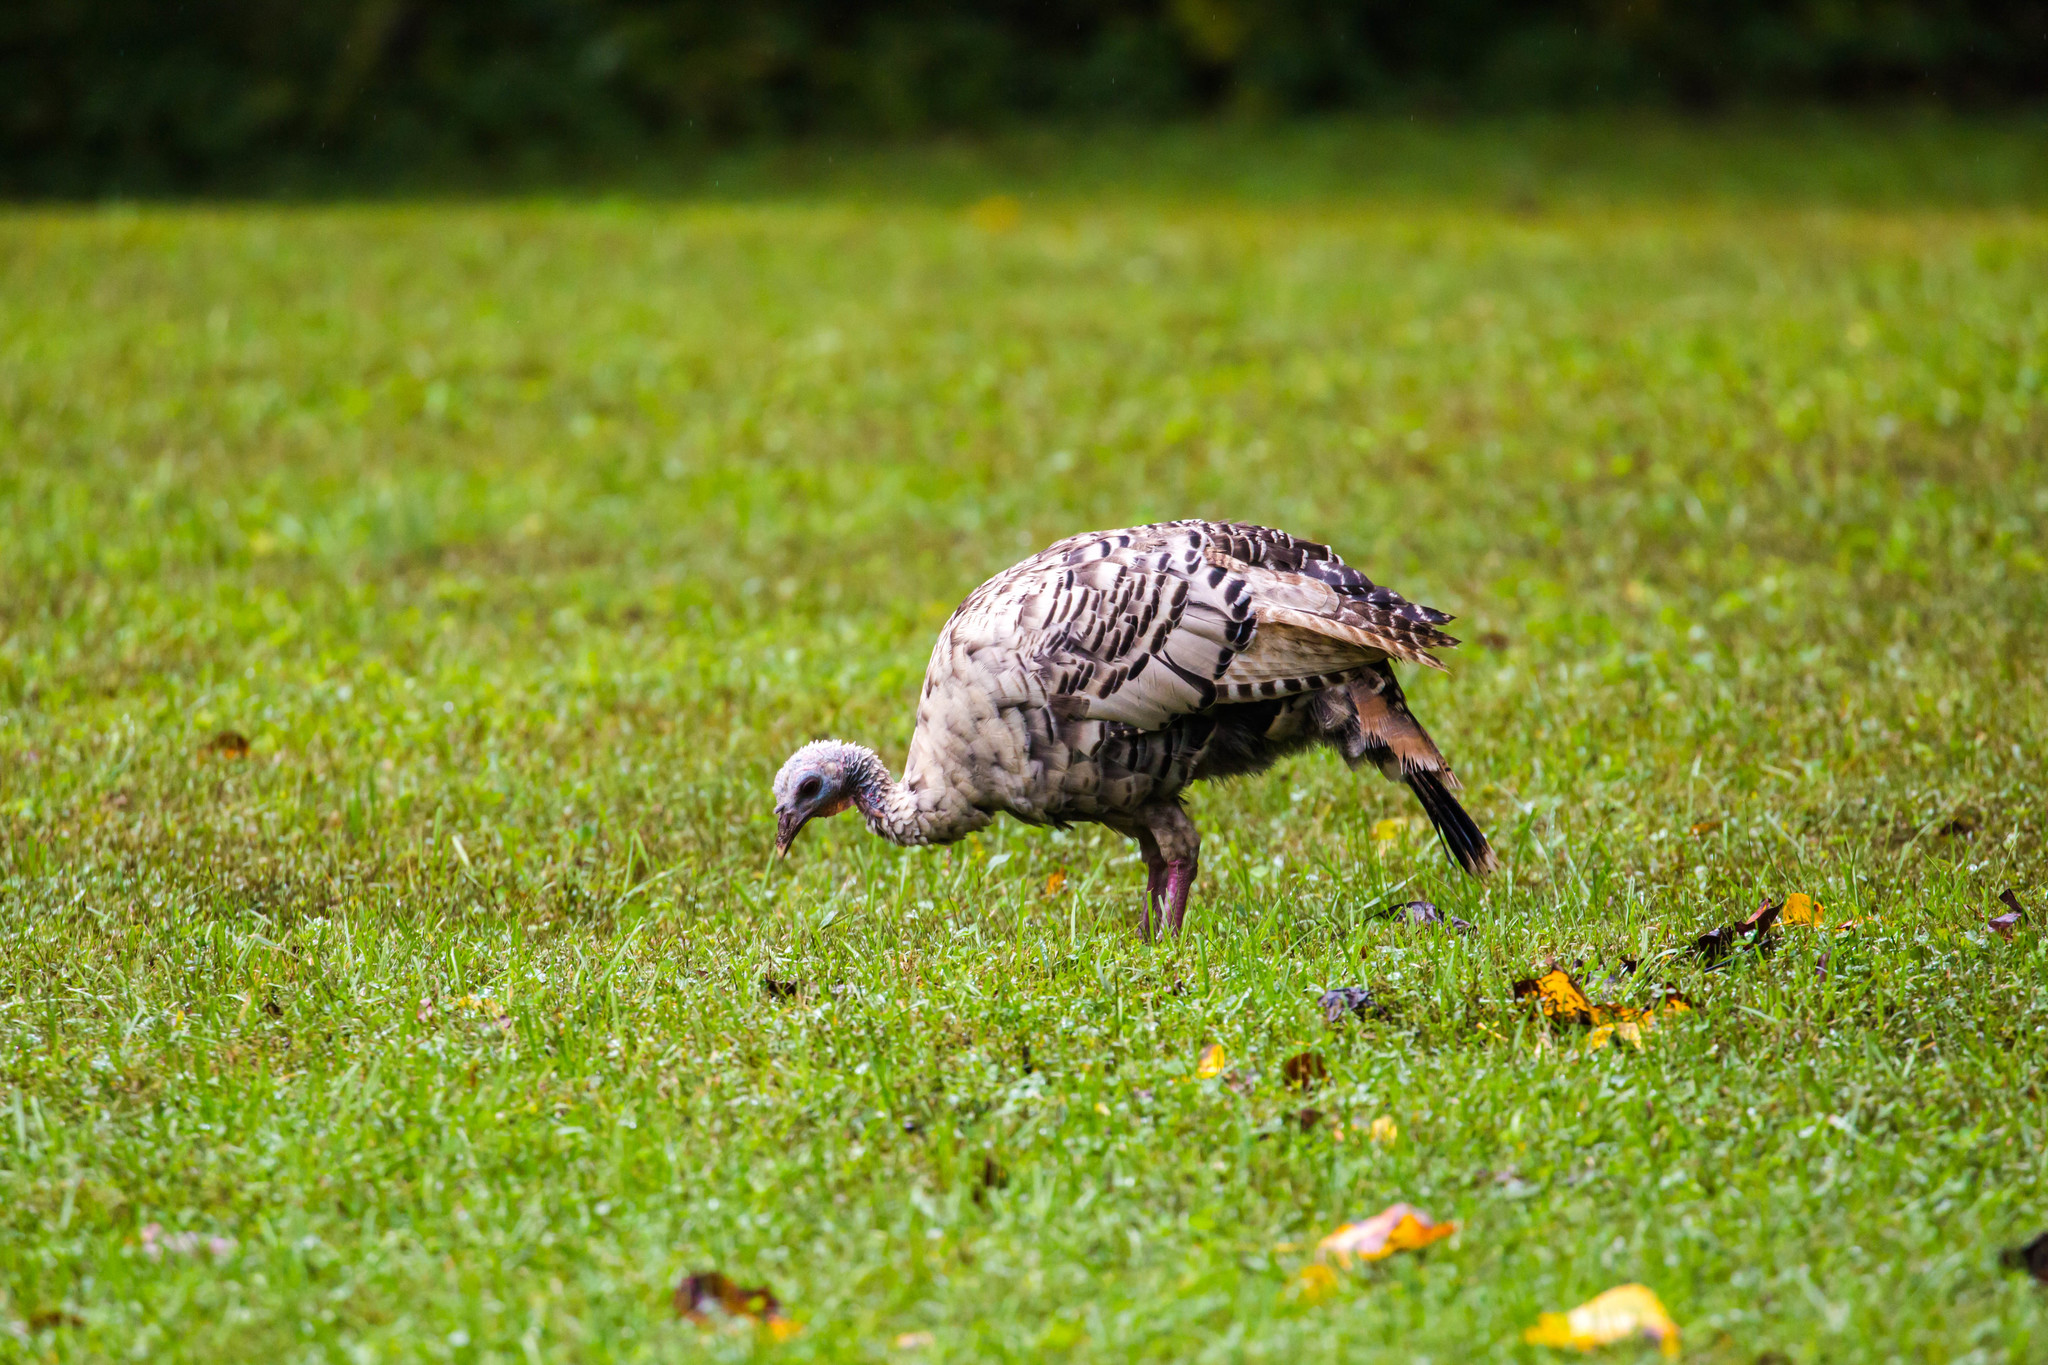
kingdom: Animalia
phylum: Chordata
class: Aves
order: Galliformes
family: Phasianidae
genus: Meleagris
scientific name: Meleagris gallopavo
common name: Wild turkey
